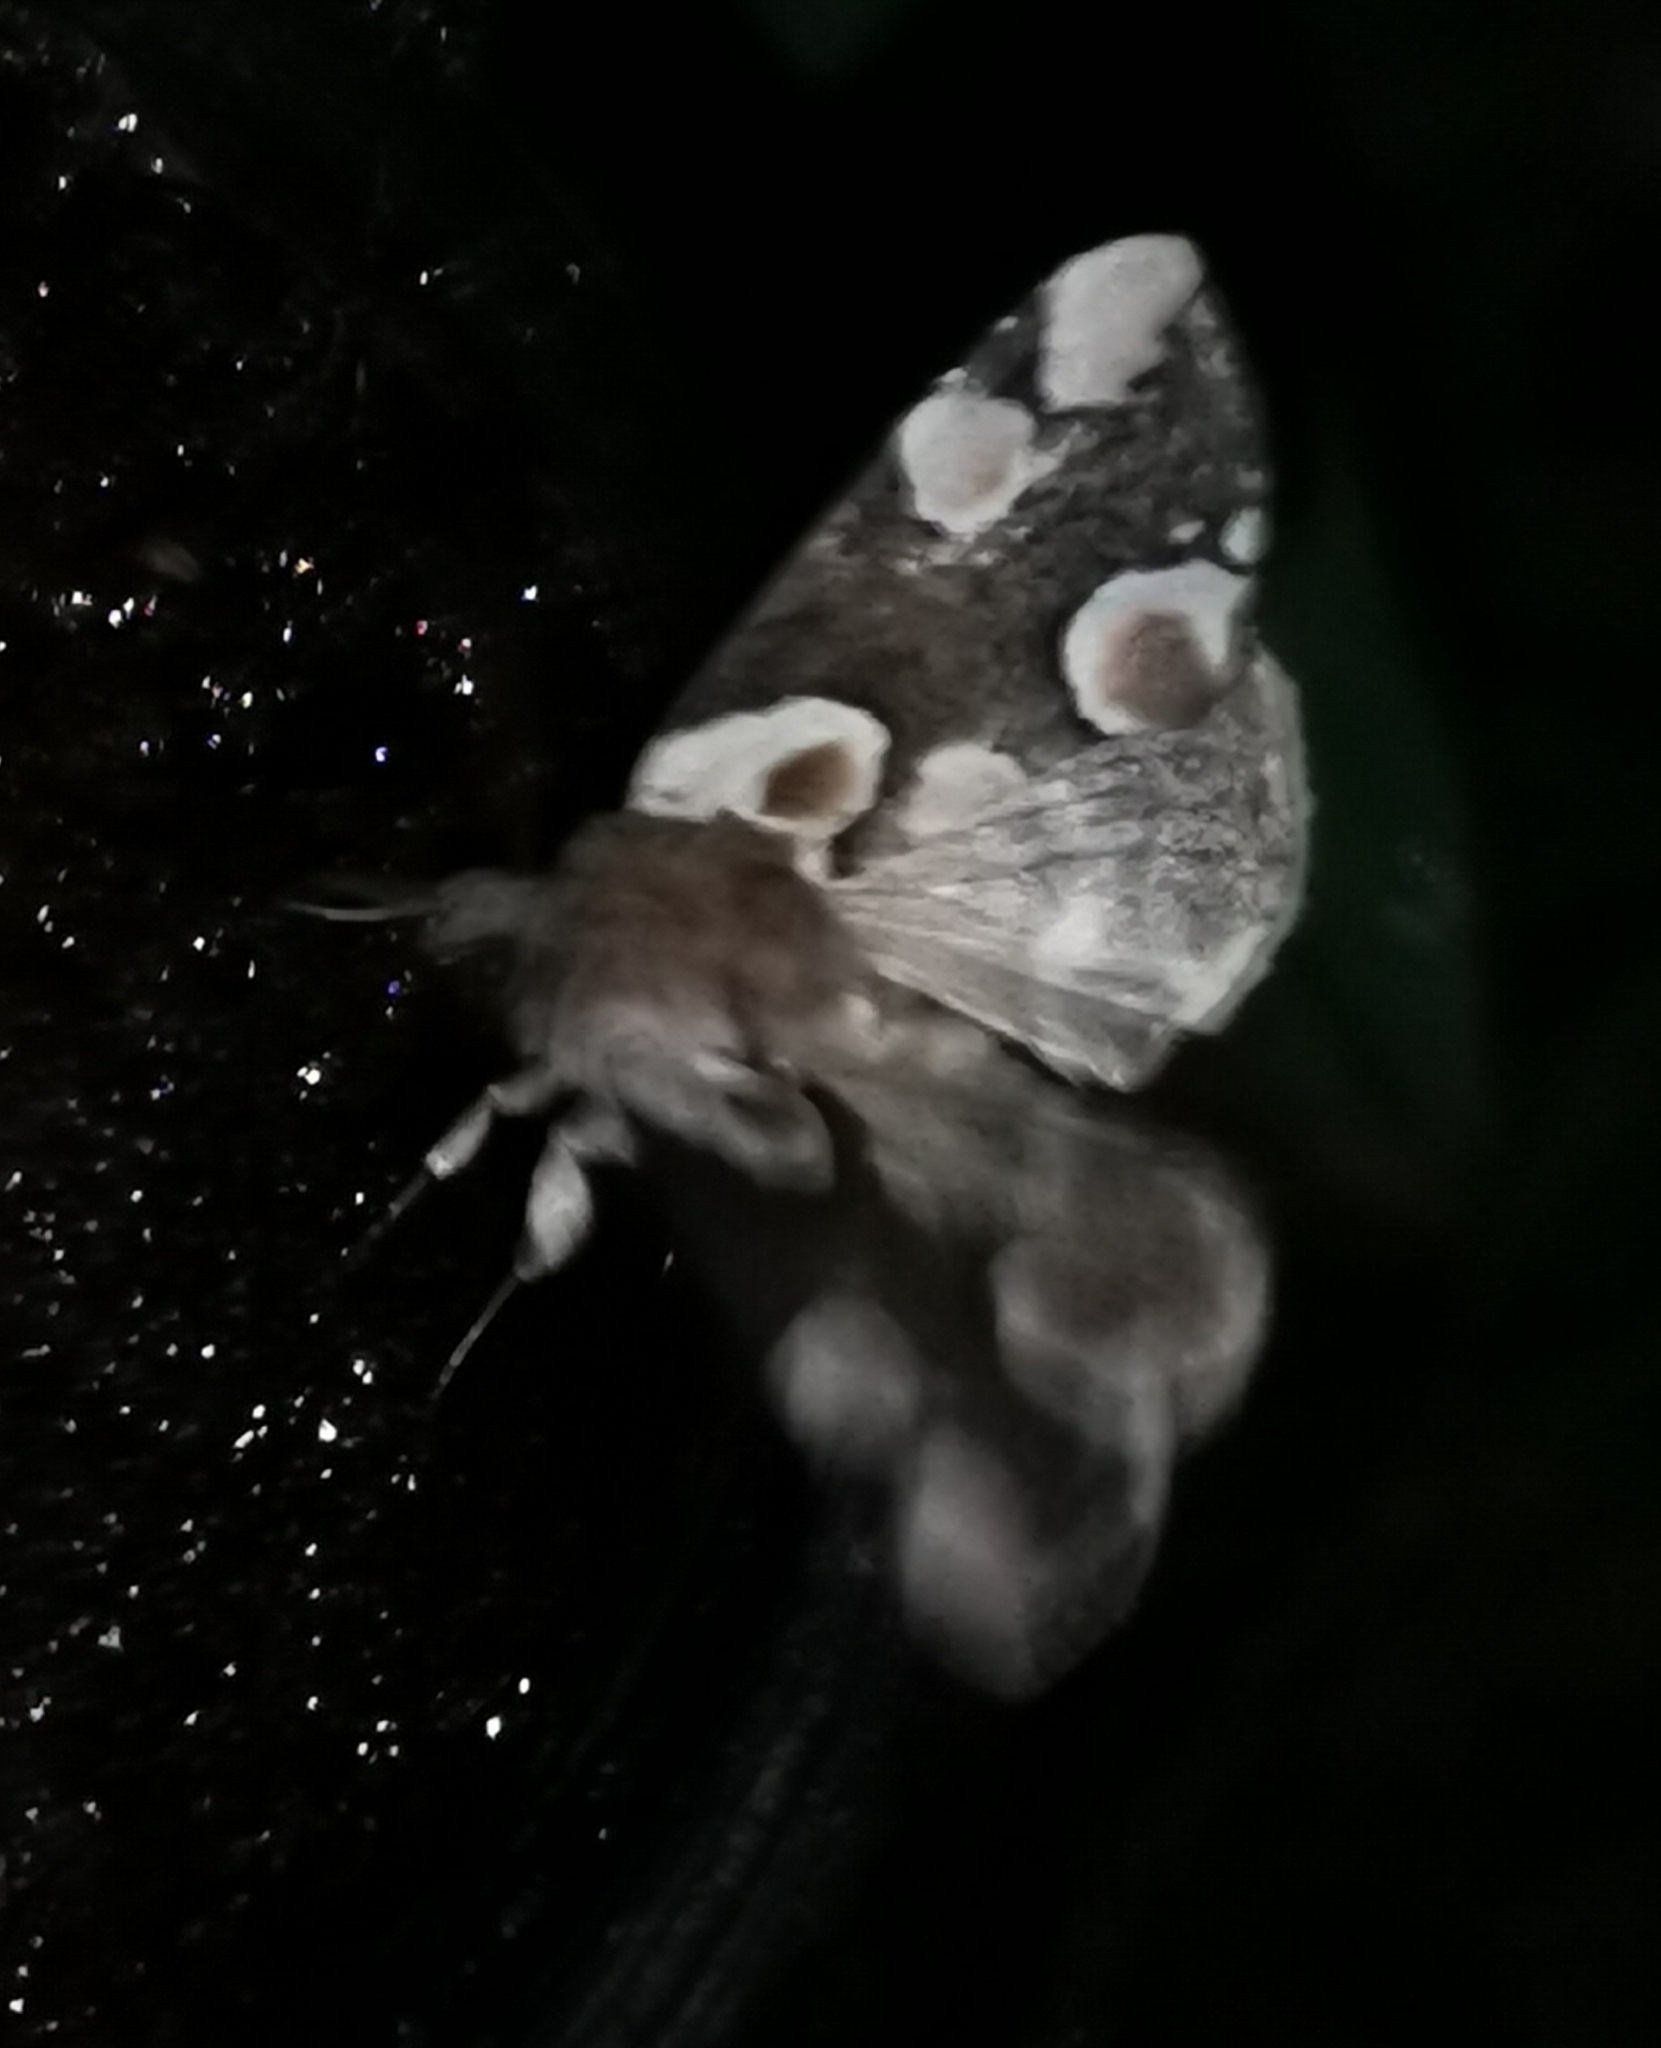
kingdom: Animalia
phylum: Arthropoda
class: Insecta
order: Lepidoptera
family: Drepanidae
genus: Thyatira
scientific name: Thyatira batis
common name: Peach blossom
